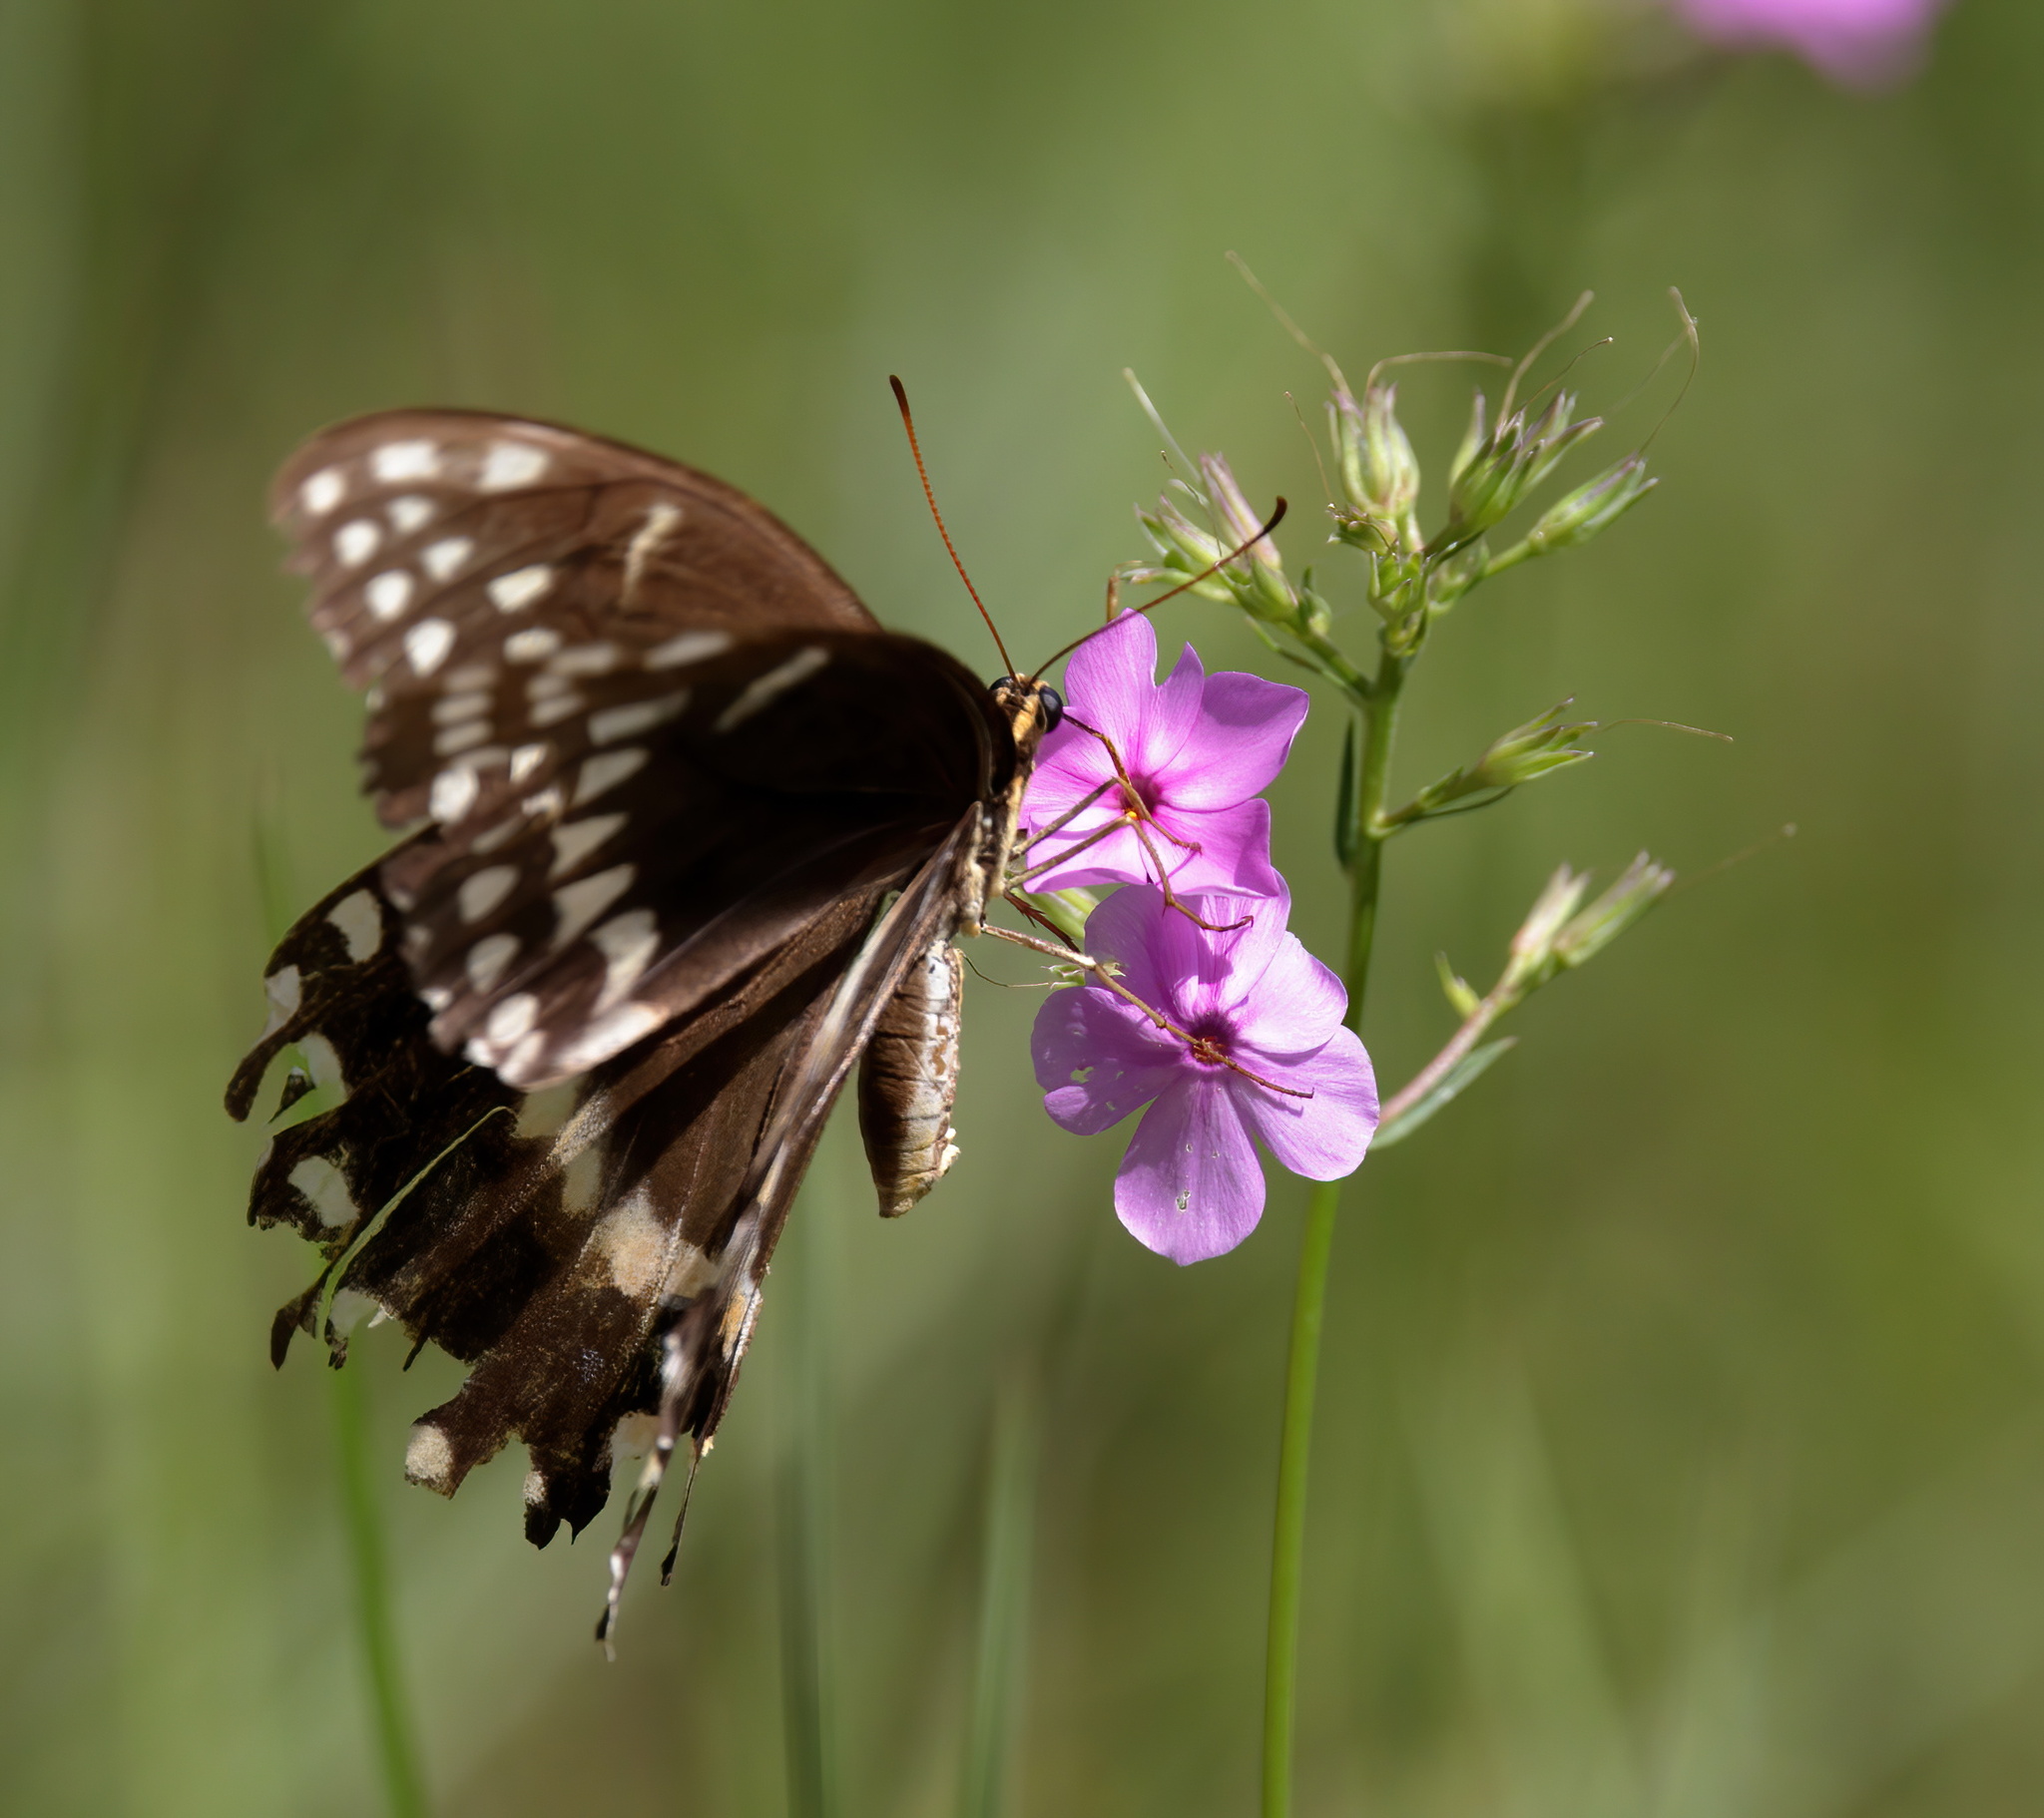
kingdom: Animalia
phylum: Arthropoda
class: Insecta
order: Lepidoptera
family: Papilionidae
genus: Papilio
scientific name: Papilio palamedes
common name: Palamedes swallowtail
